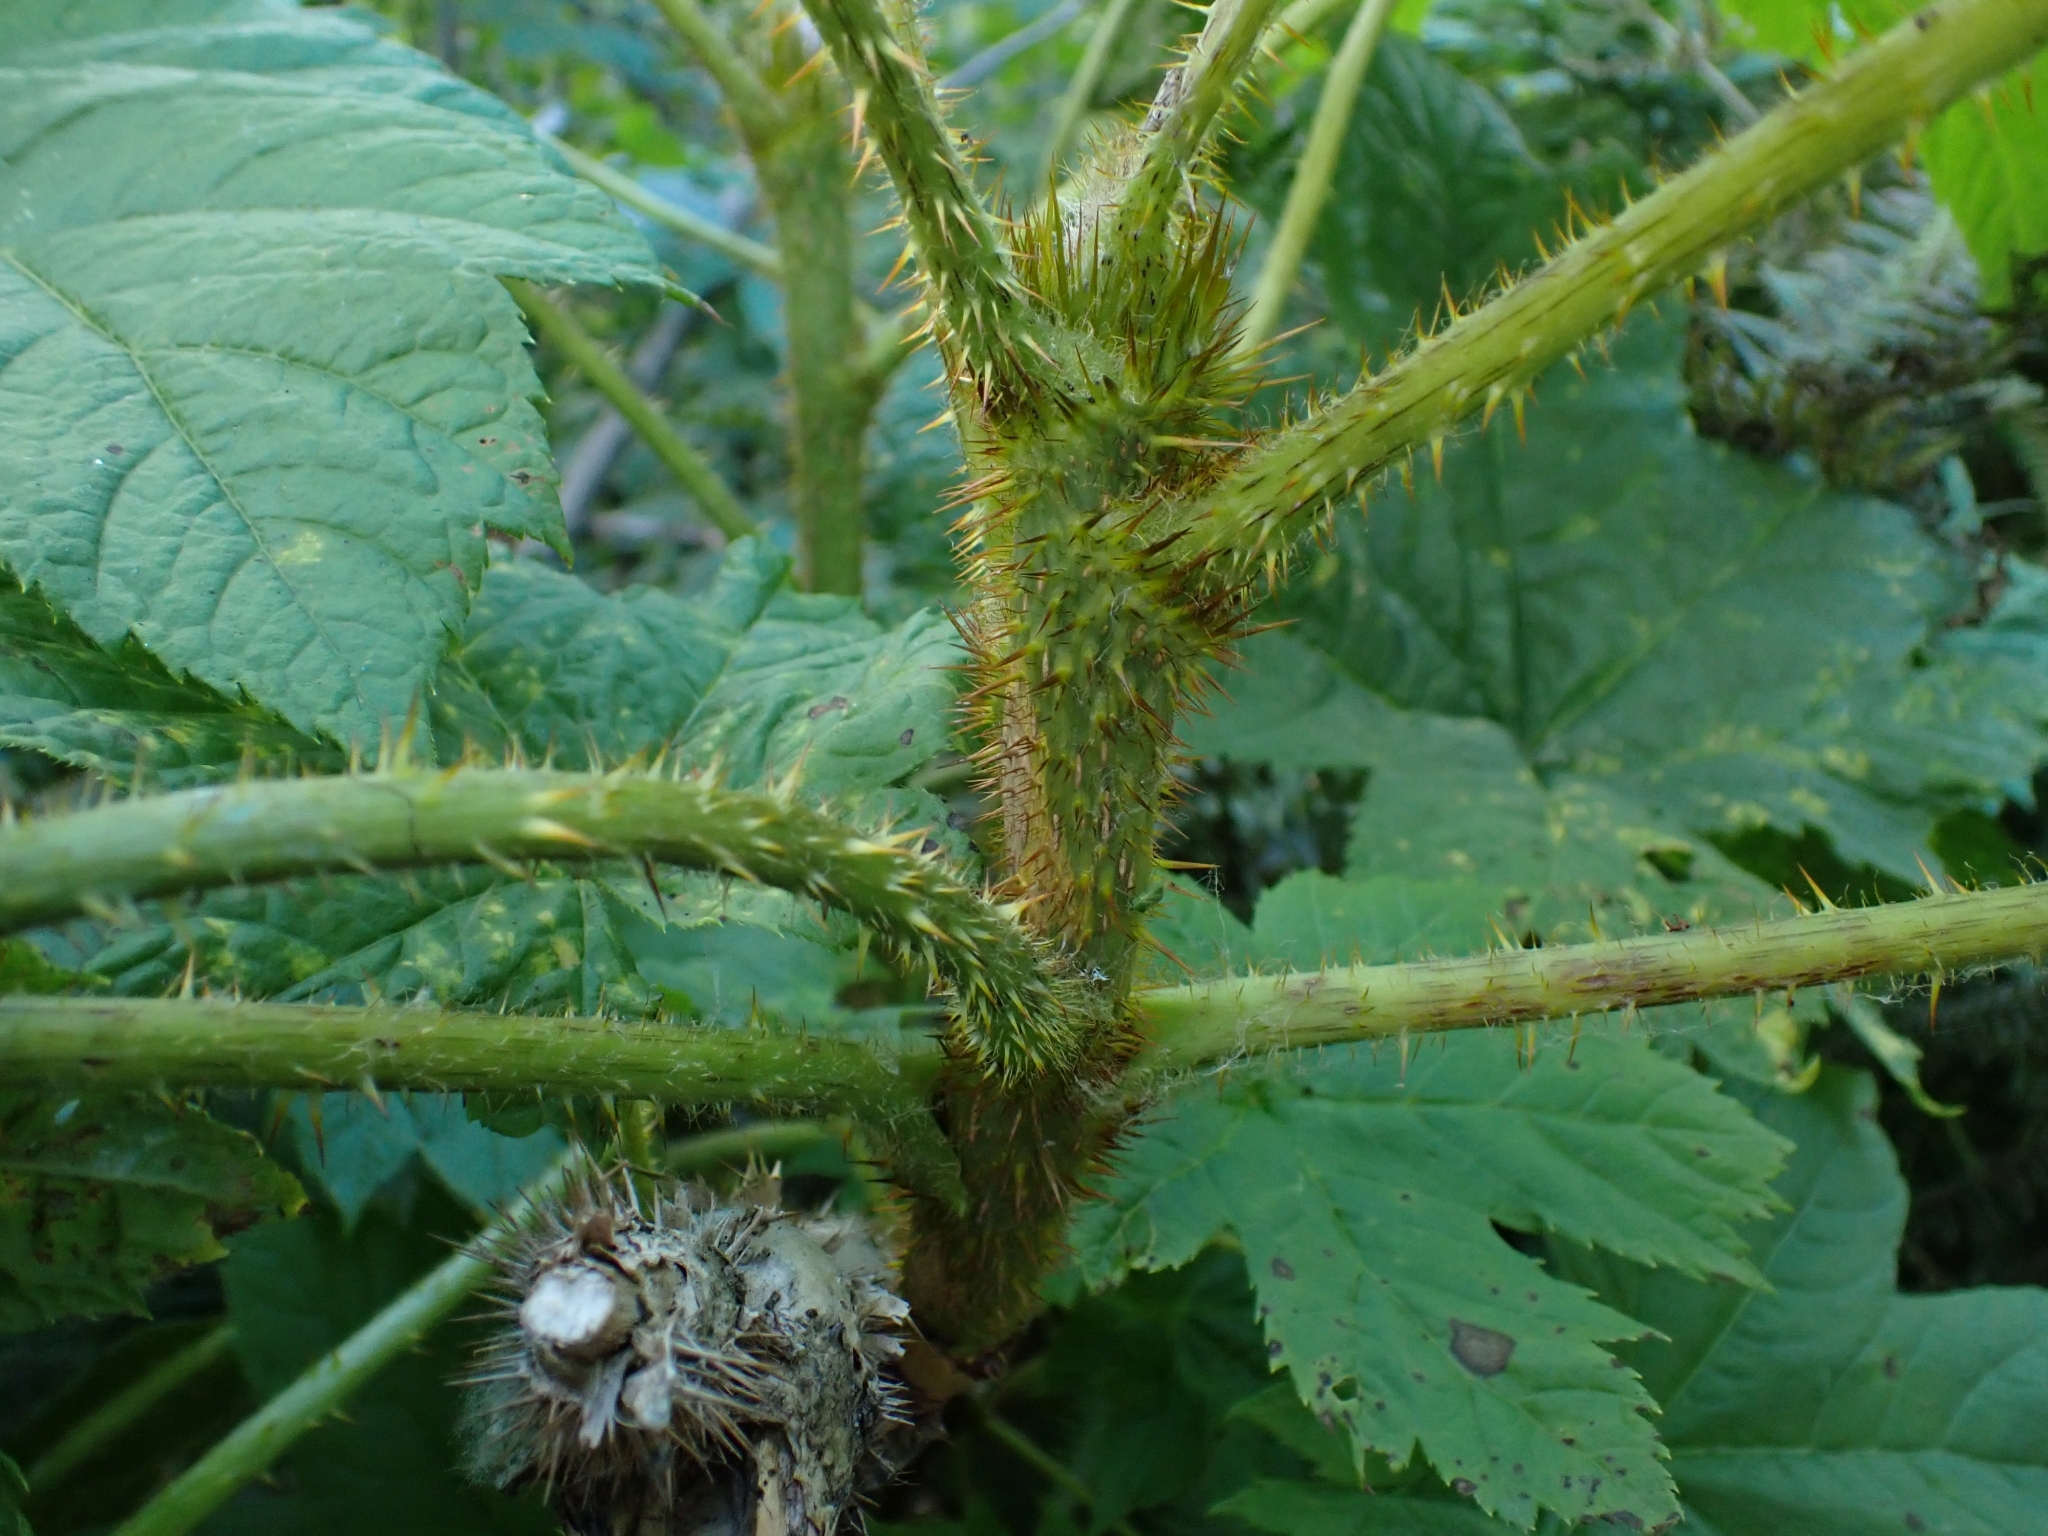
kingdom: Plantae
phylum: Tracheophyta
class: Magnoliopsida
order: Apiales
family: Araliaceae
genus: Oplopanax
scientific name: Oplopanax horridus
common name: Devil's walking-stick
